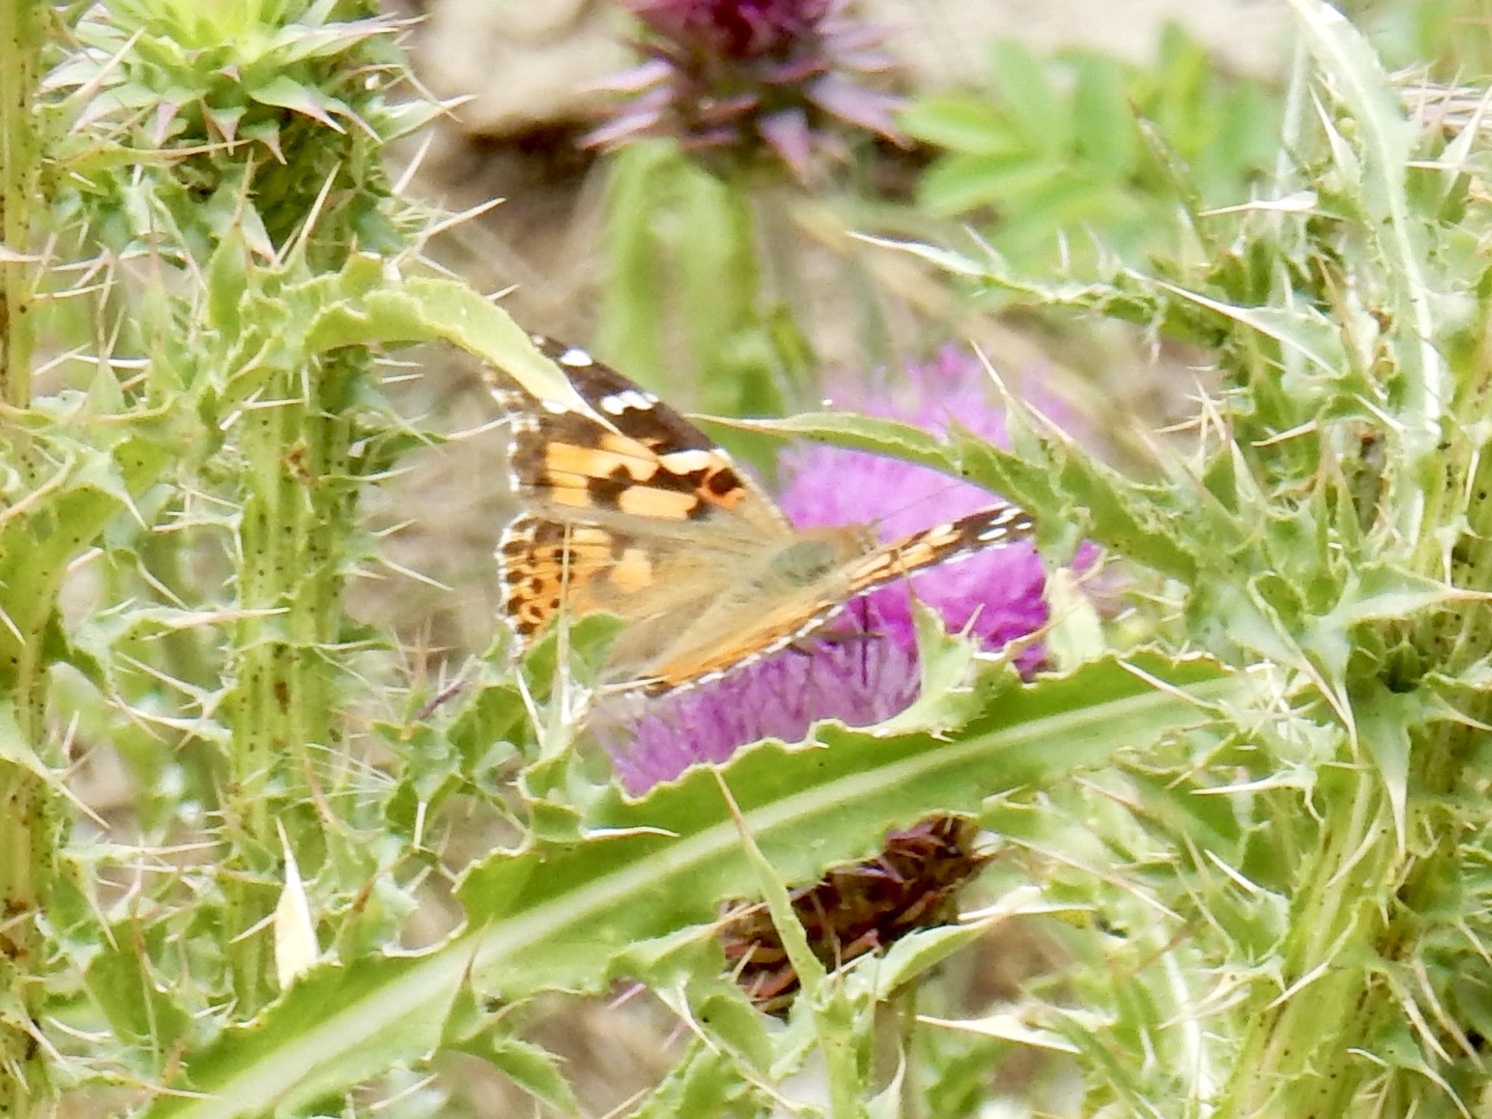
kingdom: Animalia
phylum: Arthropoda
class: Insecta
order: Lepidoptera
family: Nymphalidae
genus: Vanessa
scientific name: Vanessa cardui
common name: Painted lady
